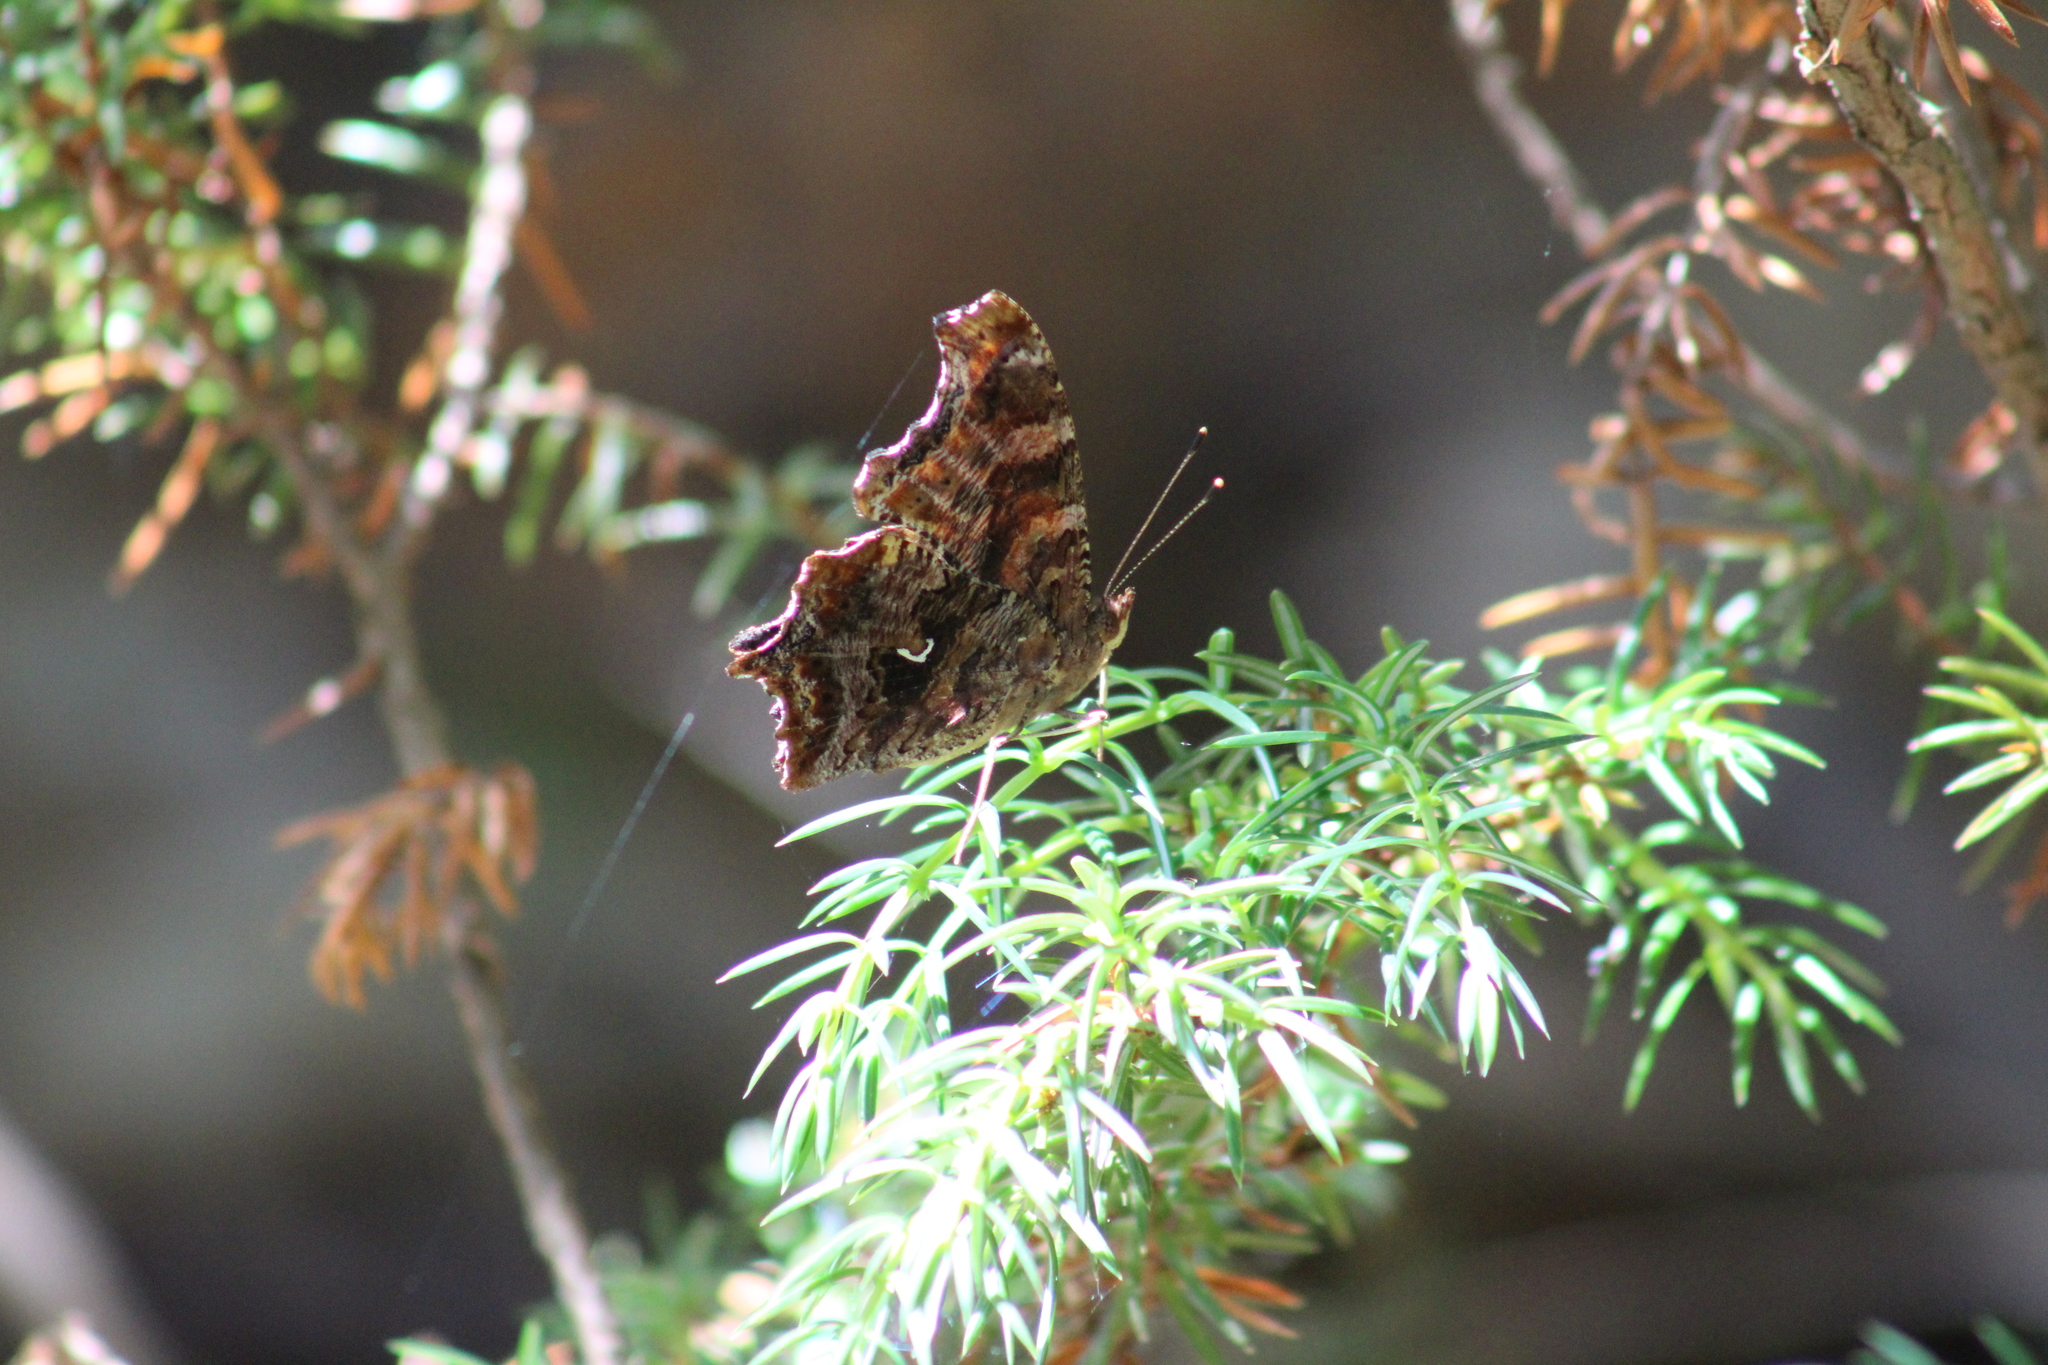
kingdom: Animalia
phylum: Arthropoda
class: Insecta
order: Lepidoptera
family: Nymphalidae
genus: Polygonia
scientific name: Polygonia comma
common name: Eastern comma
